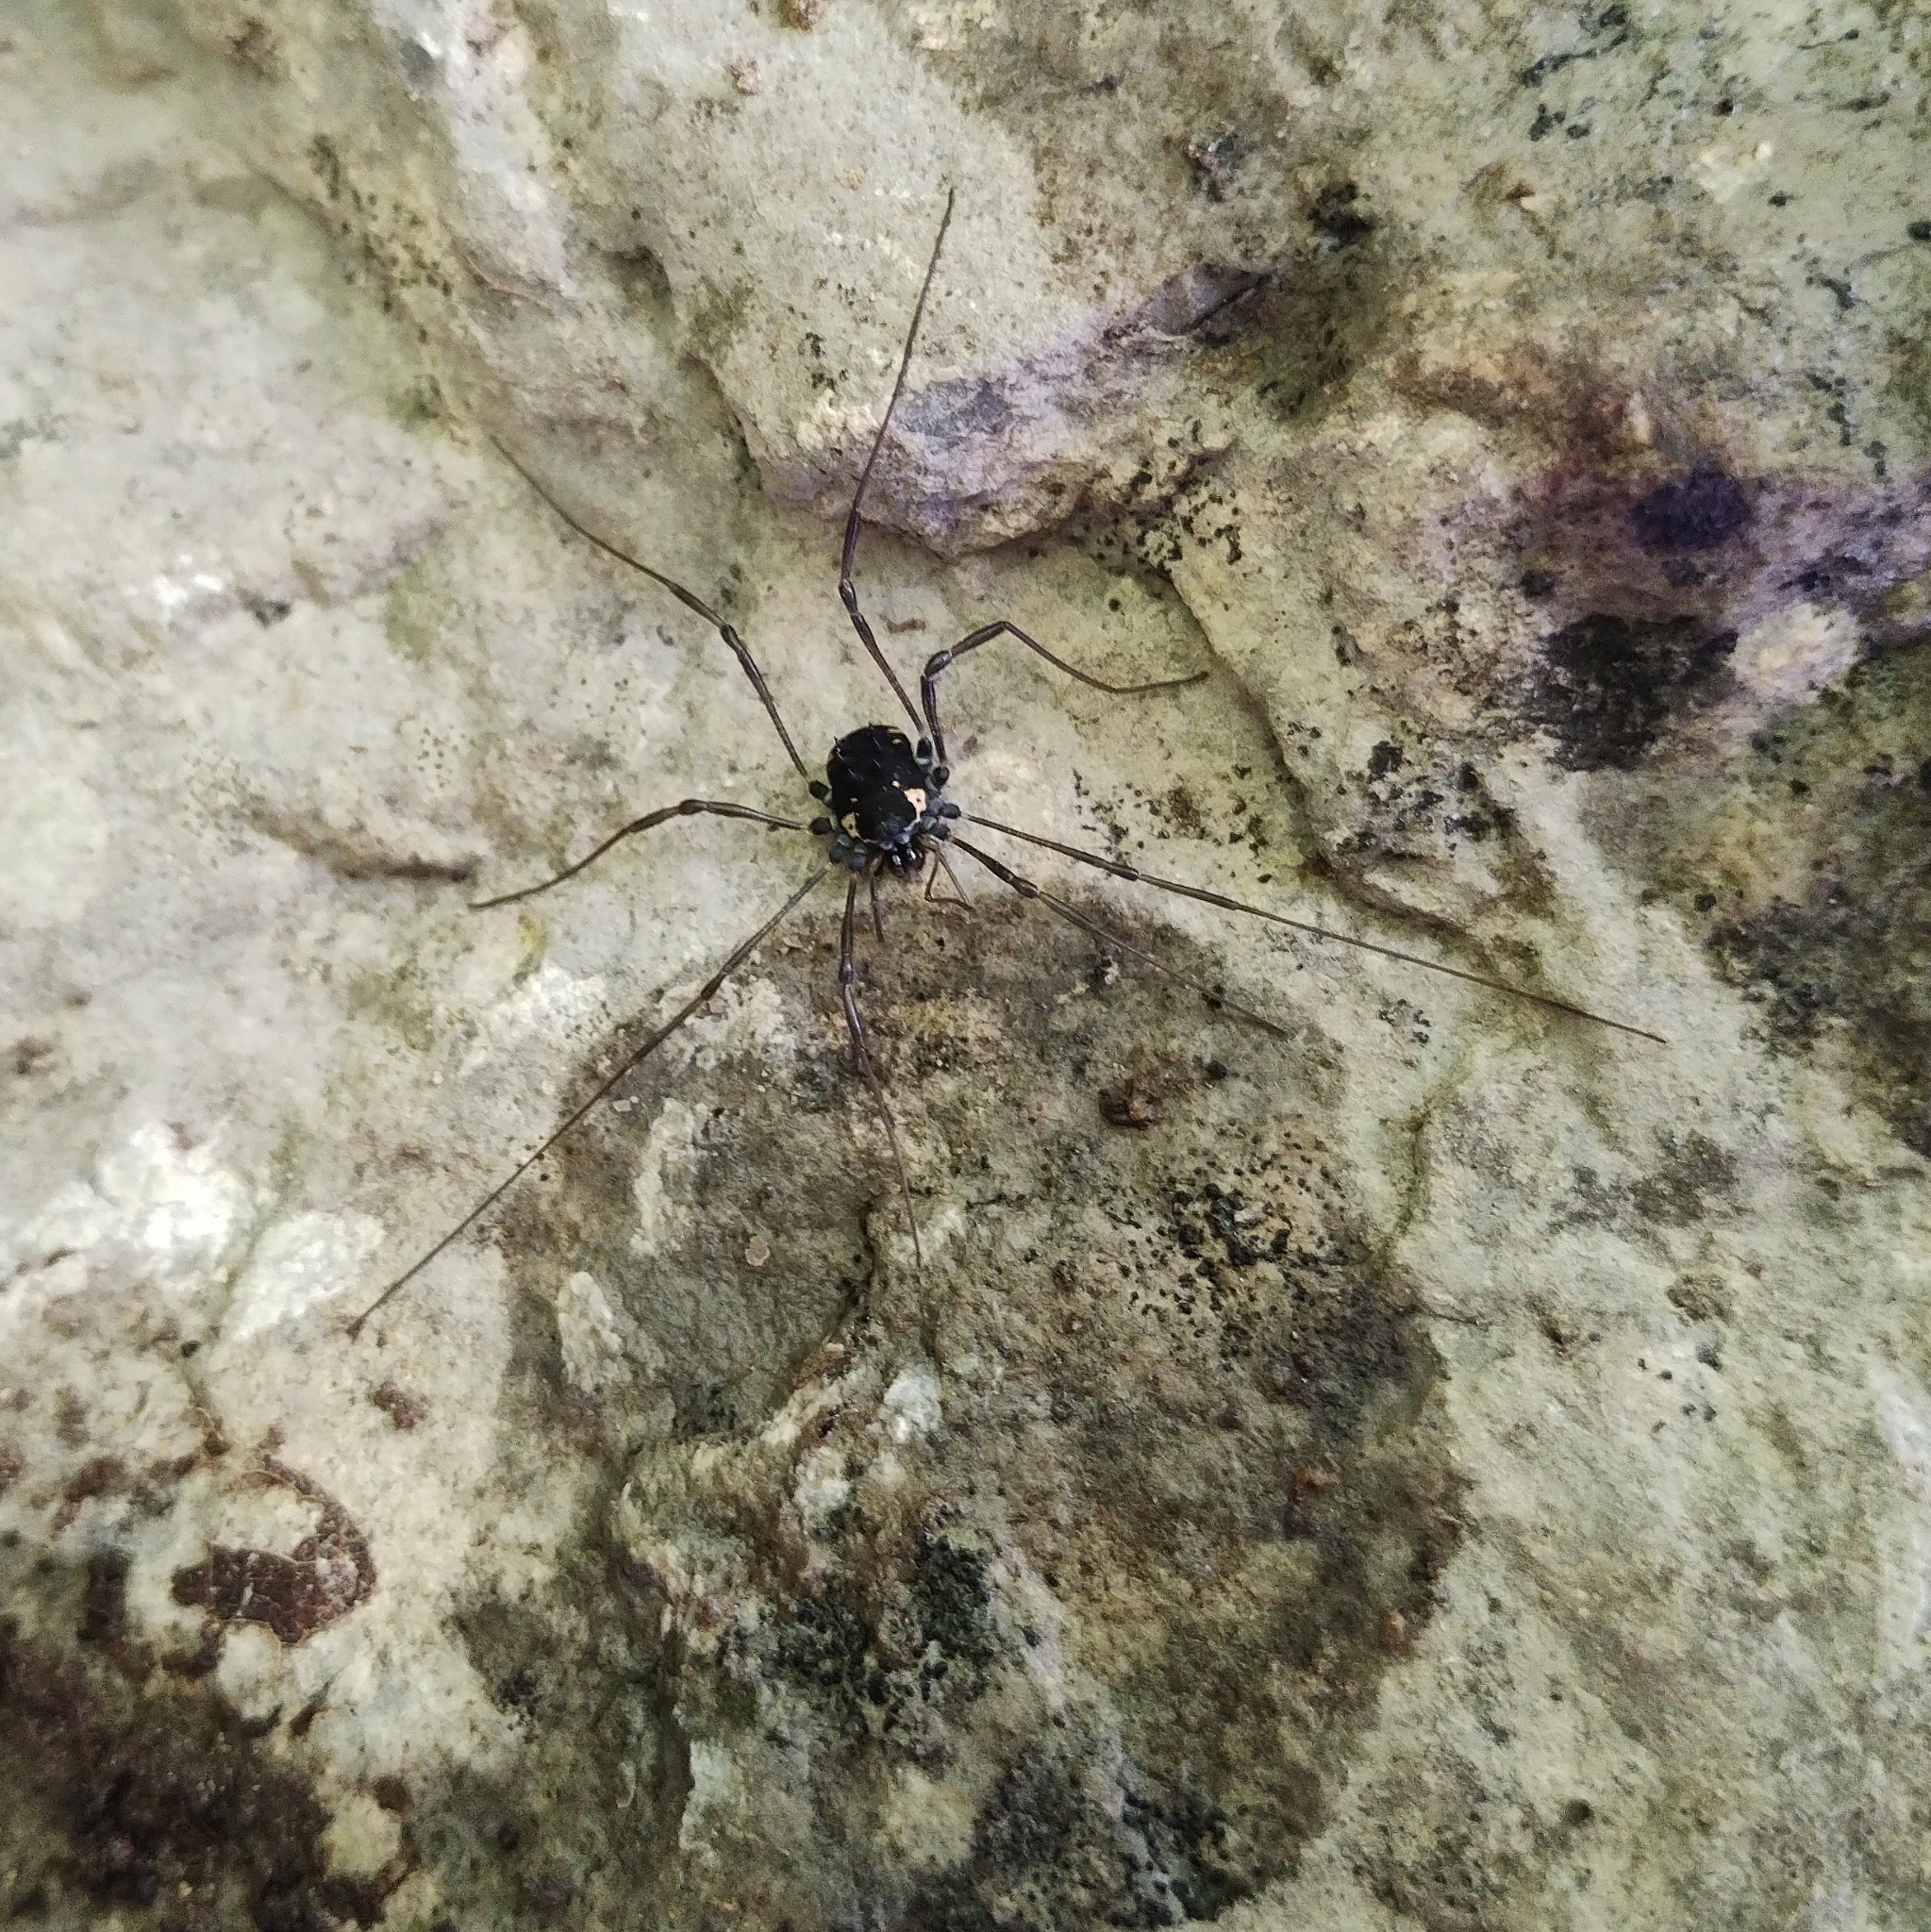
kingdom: Animalia
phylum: Arthropoda
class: Arachnida
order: Opiliones
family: Nemastomatidae
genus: Paranemastoma
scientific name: Paranemastoma radewi
